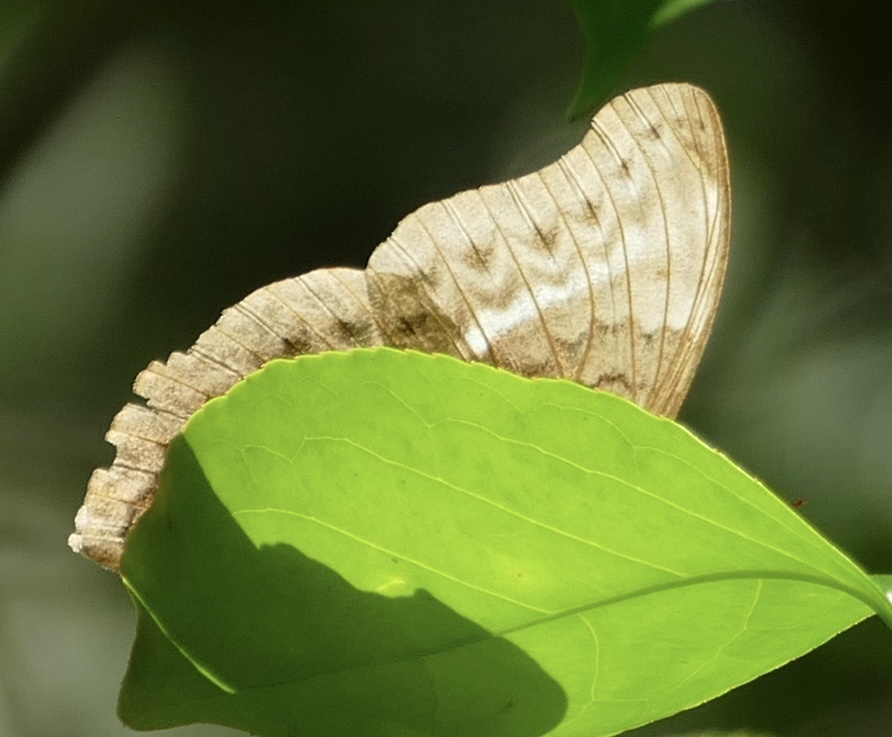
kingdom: Animalia
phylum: Arthropoda
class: Insecta
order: Lepidoptera
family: Nymphalidae
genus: Cymothoe
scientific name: Cymothoe egesta
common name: Common yellow glider
